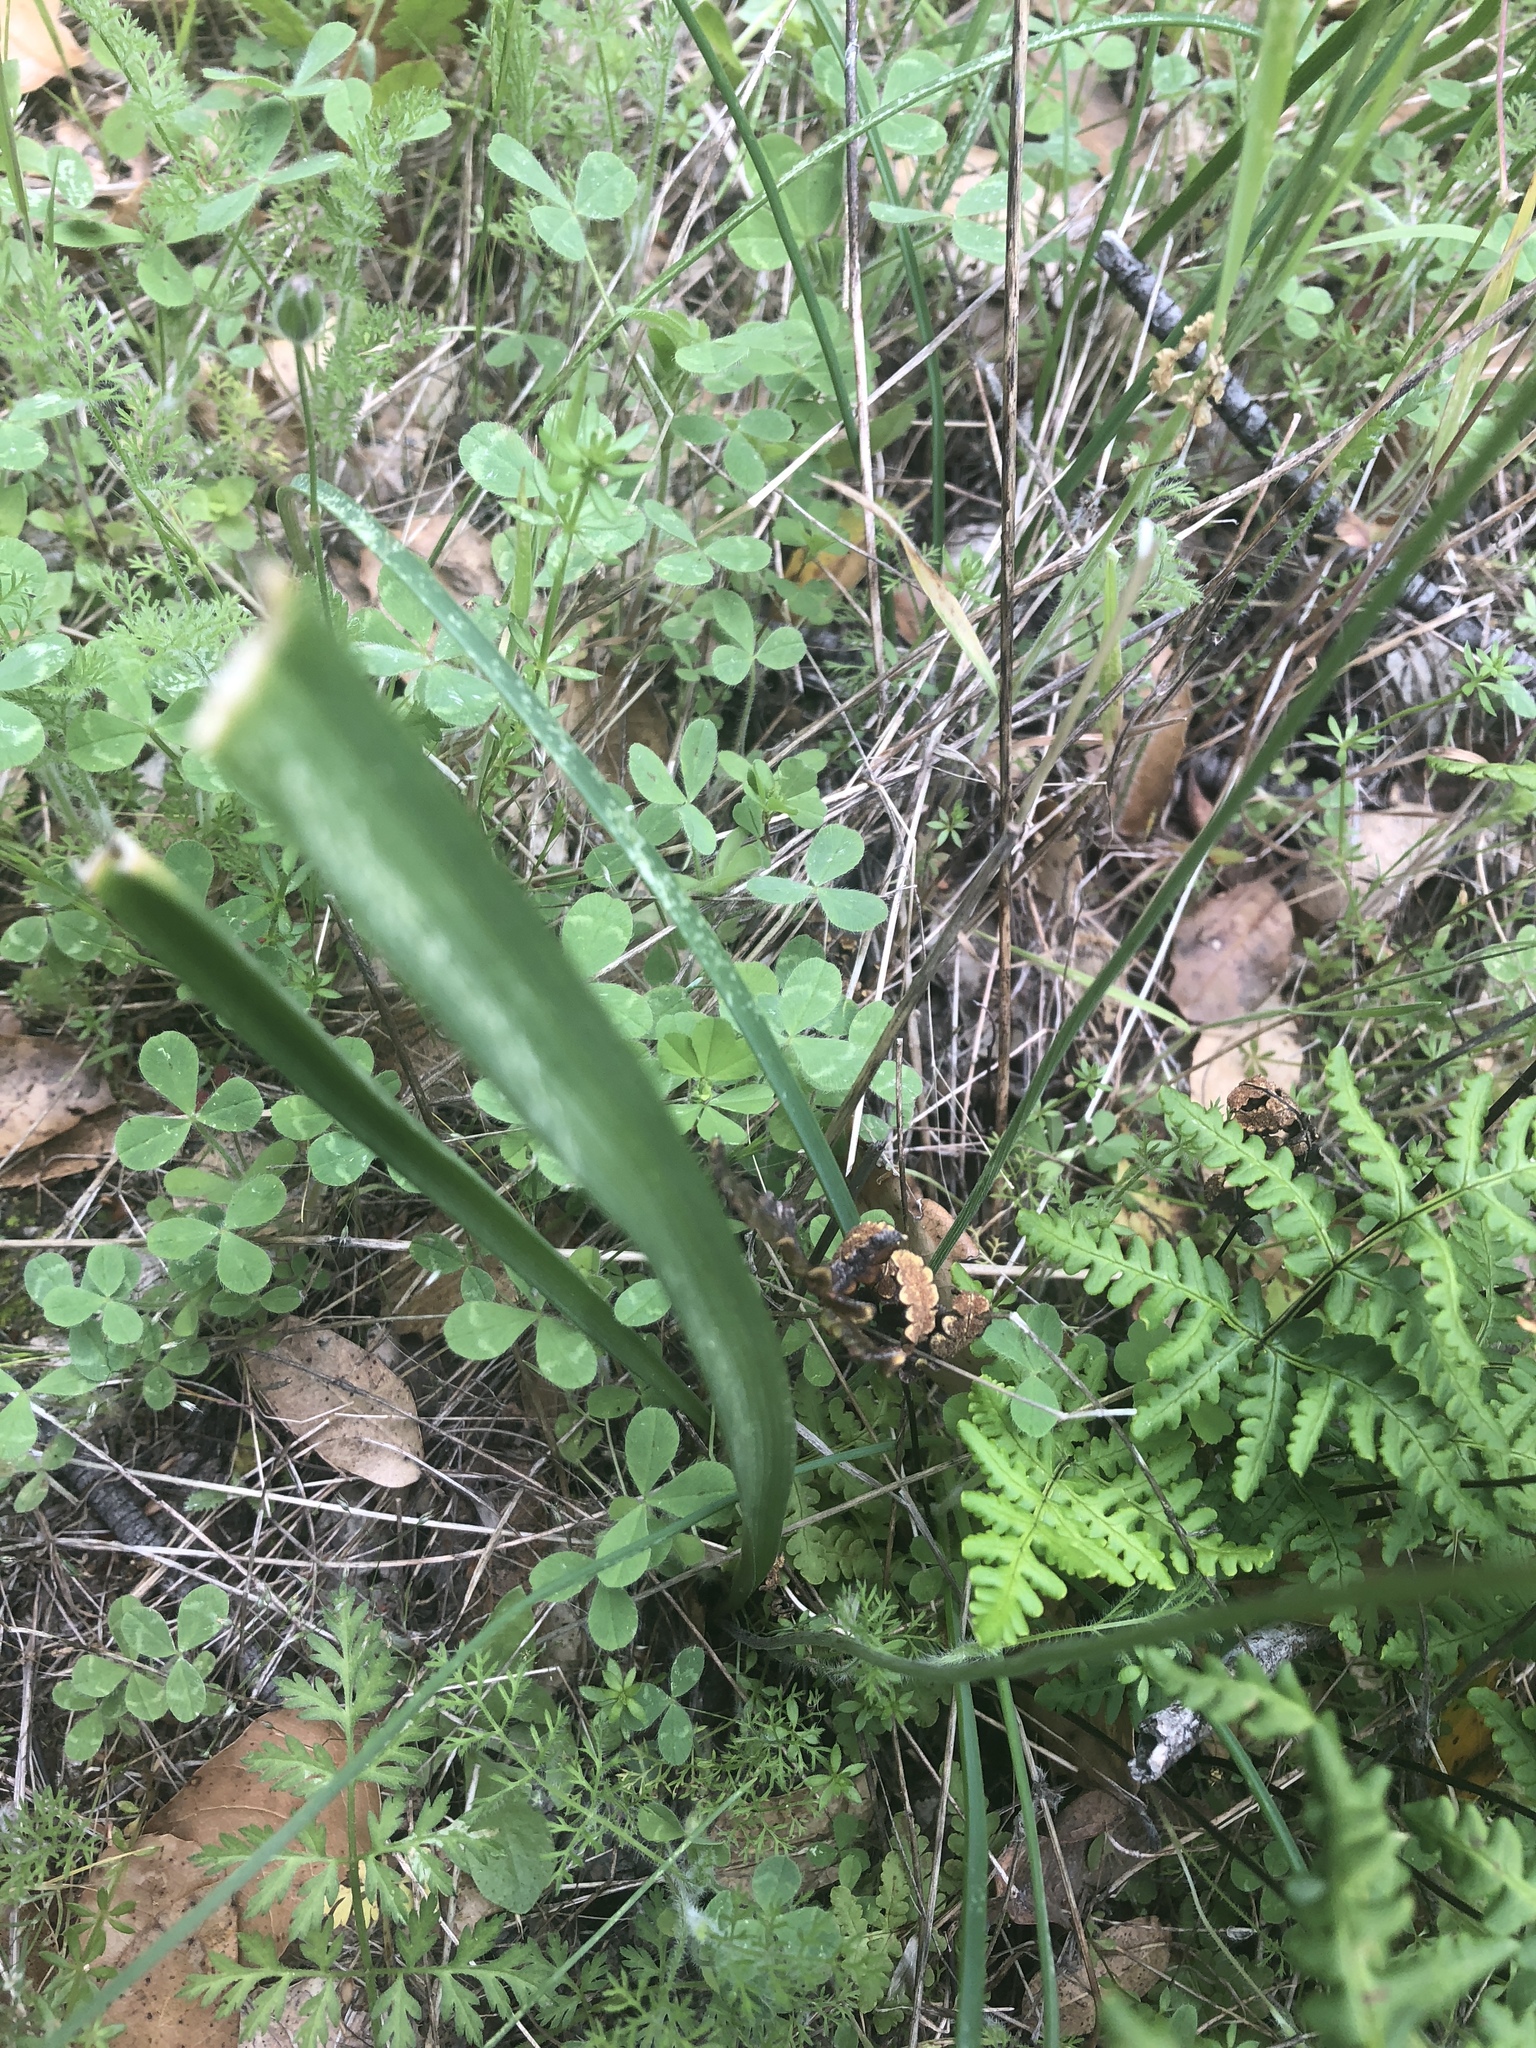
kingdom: Plantae
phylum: Tracheophyta
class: Liliopsida
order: Asparagales
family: Asparagaceae
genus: Triteleia
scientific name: Triteleia ixioides
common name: Yellow-brodiaea
